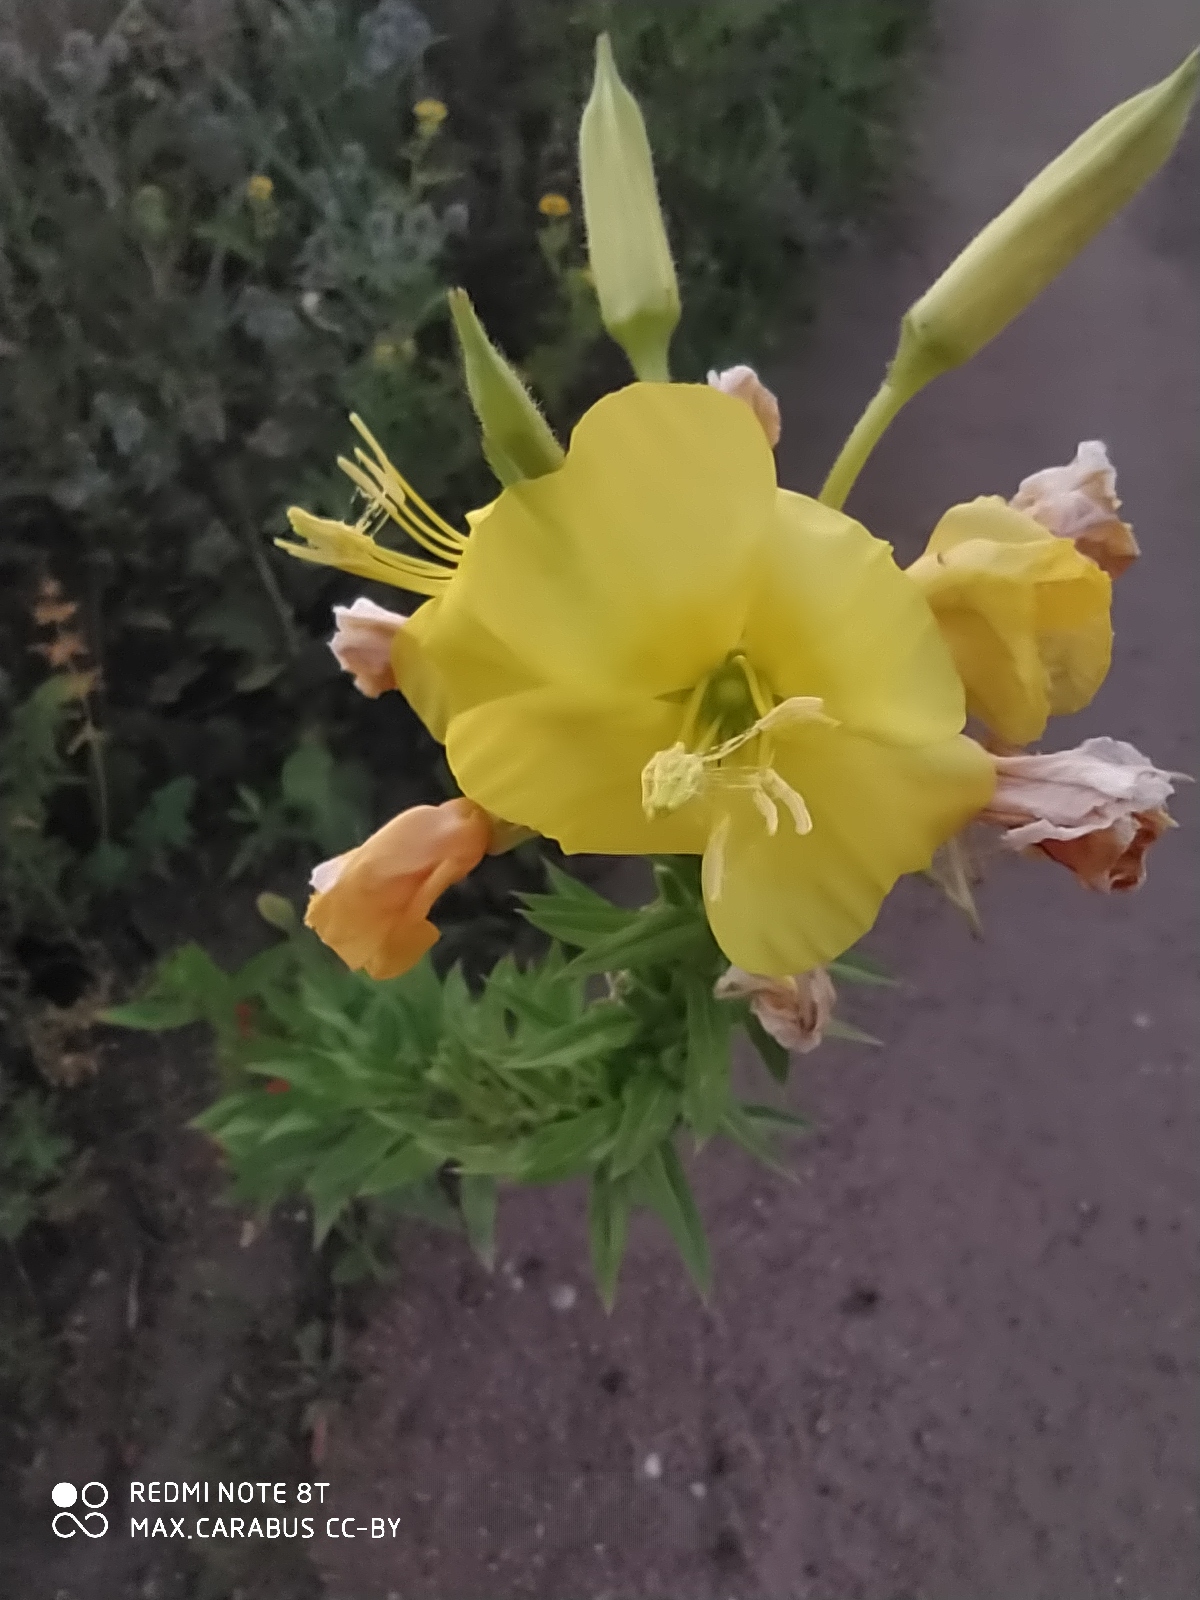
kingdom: Plantae
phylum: Tracheophyta
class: Magnoliopsida
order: Myrtales
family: Onagraceae
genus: Oenothera
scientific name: Oenothera biennis
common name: Common evening-primrose
